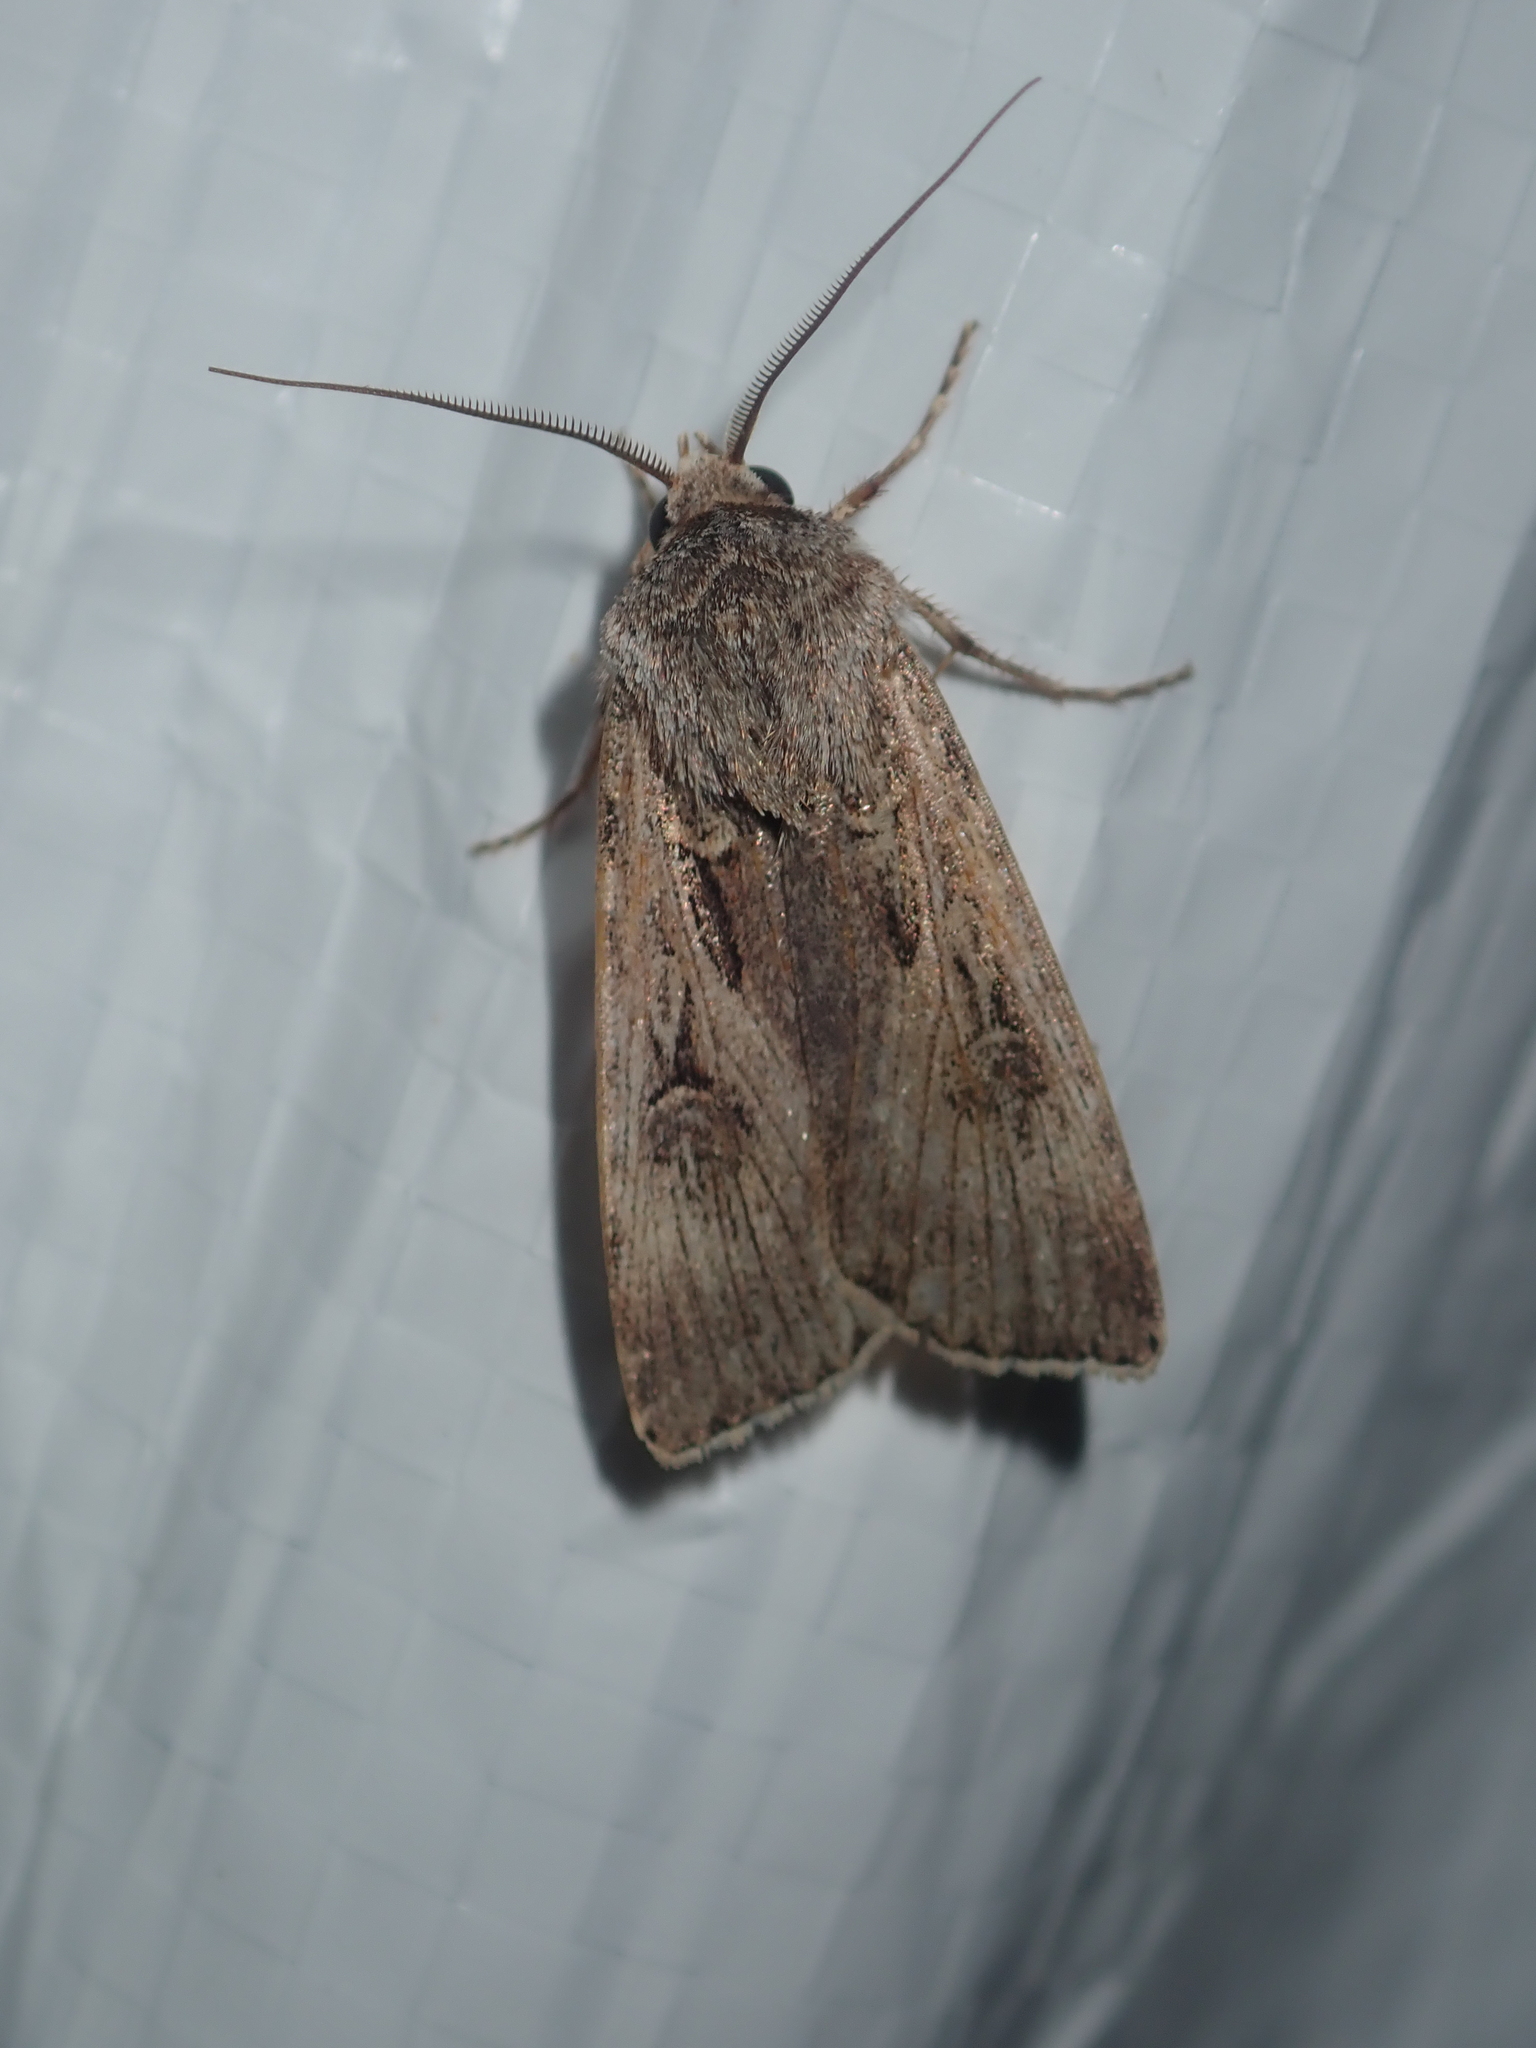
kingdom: Animalia
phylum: Arthropoda
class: Insecta
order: Lepidoptera
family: Noctuidae
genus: Agrotis
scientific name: Agrotis munda
